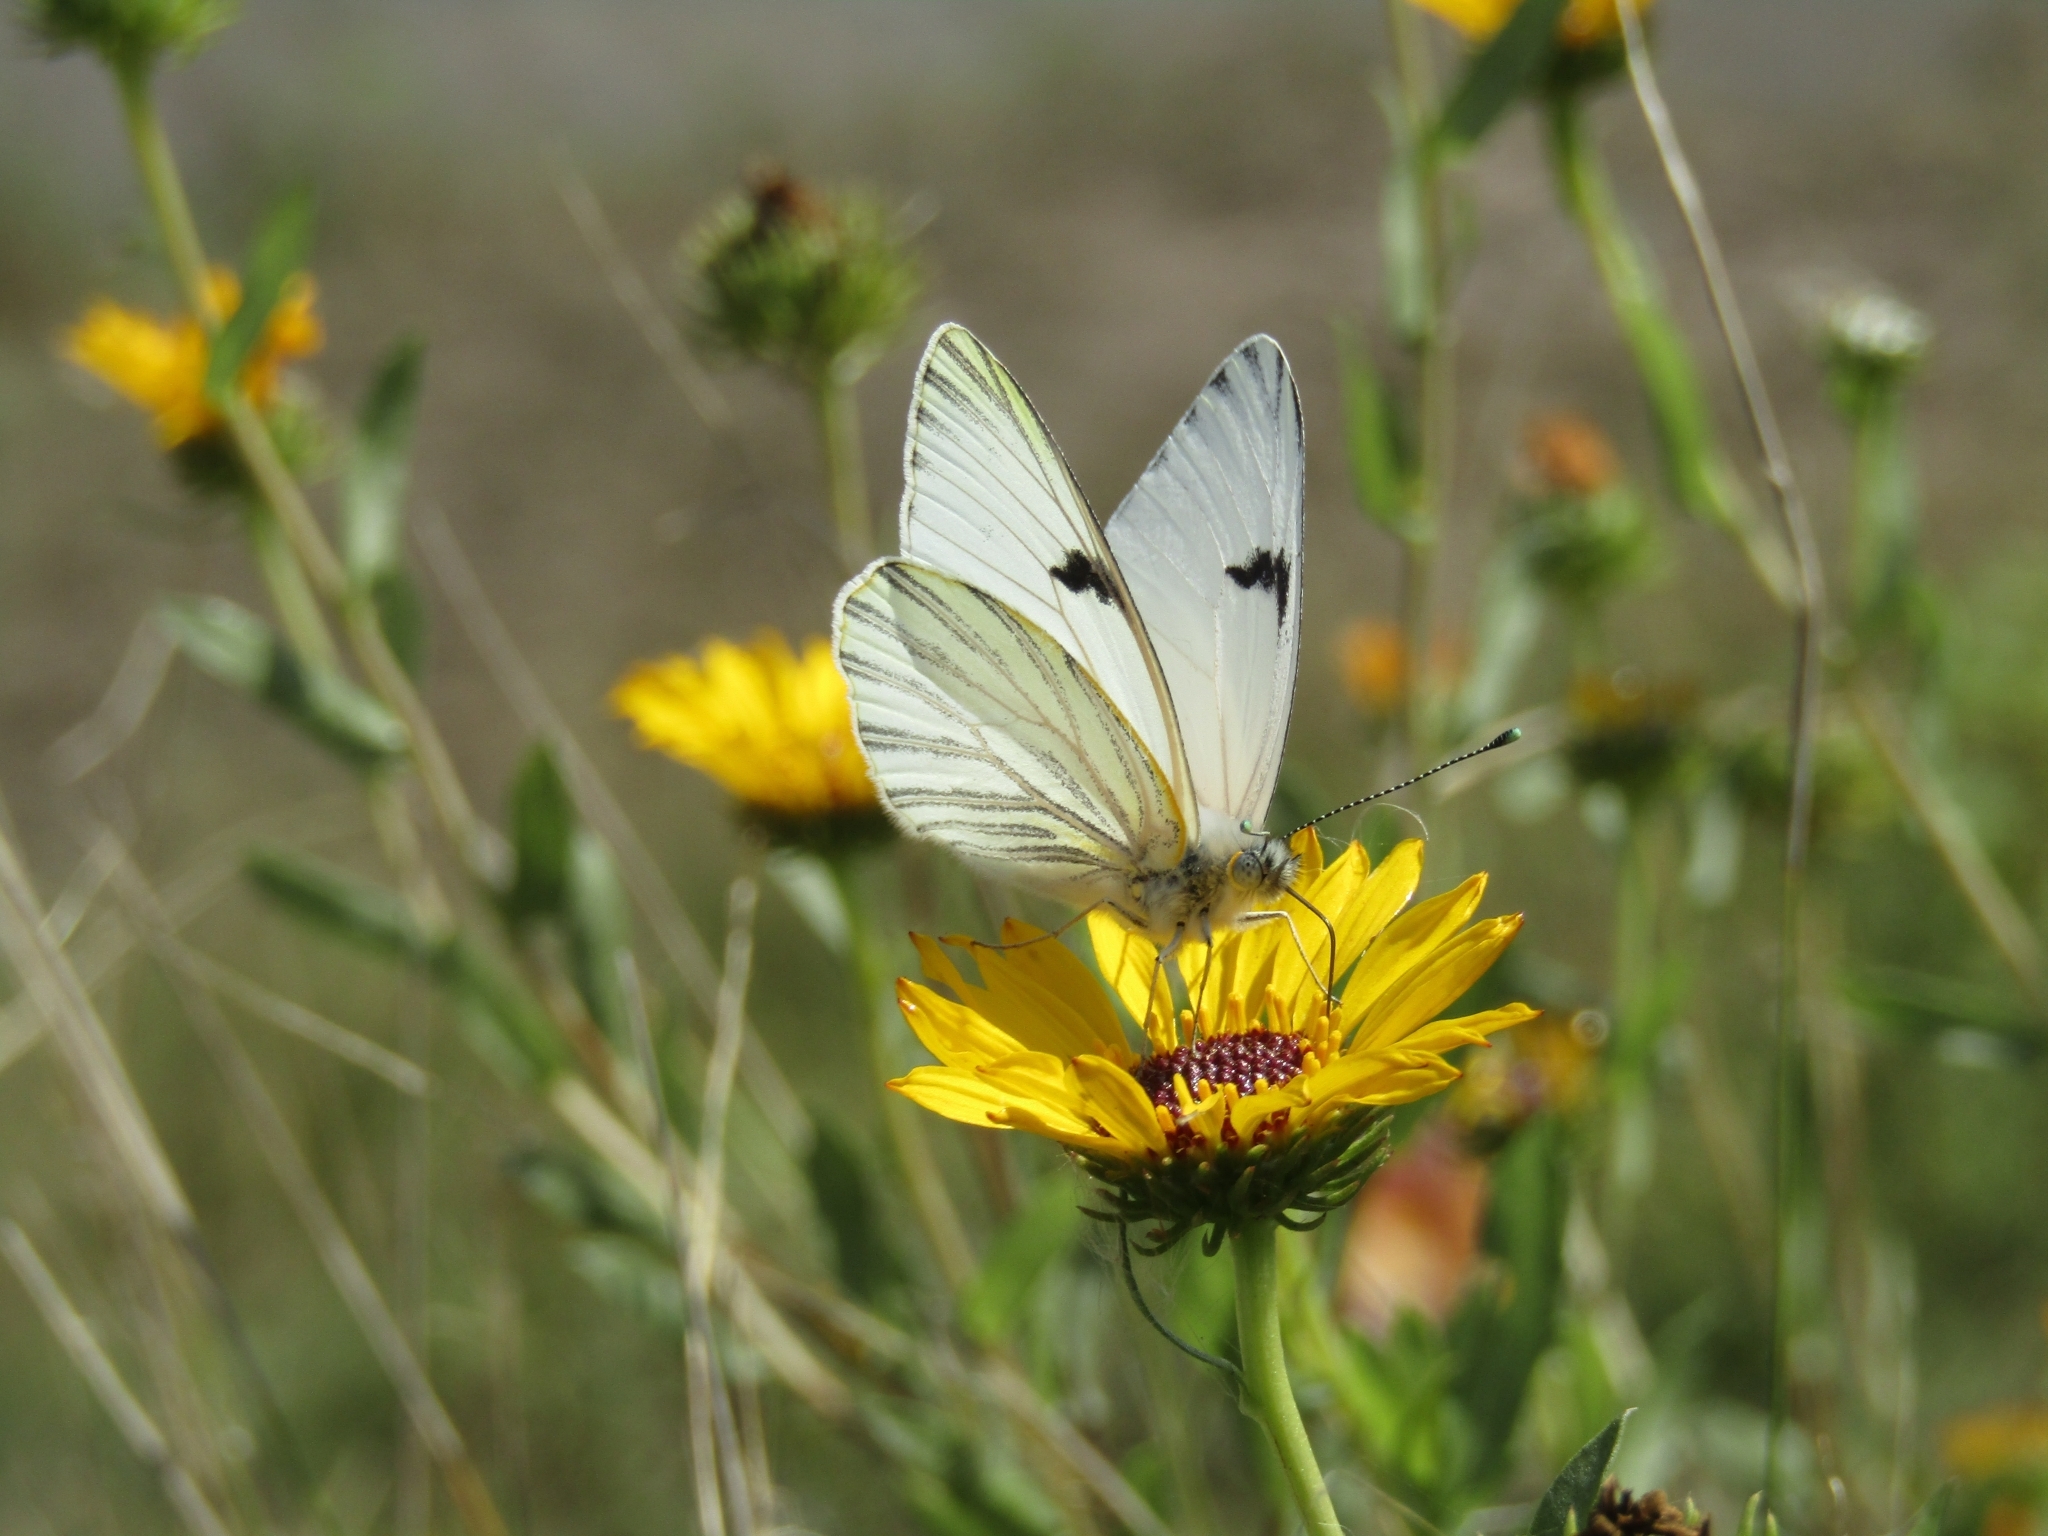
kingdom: Animalia
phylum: Arthropoda
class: Insecta
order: Lepidoptera
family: Pieridae
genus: Tatochila
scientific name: Tatochila mercedis
